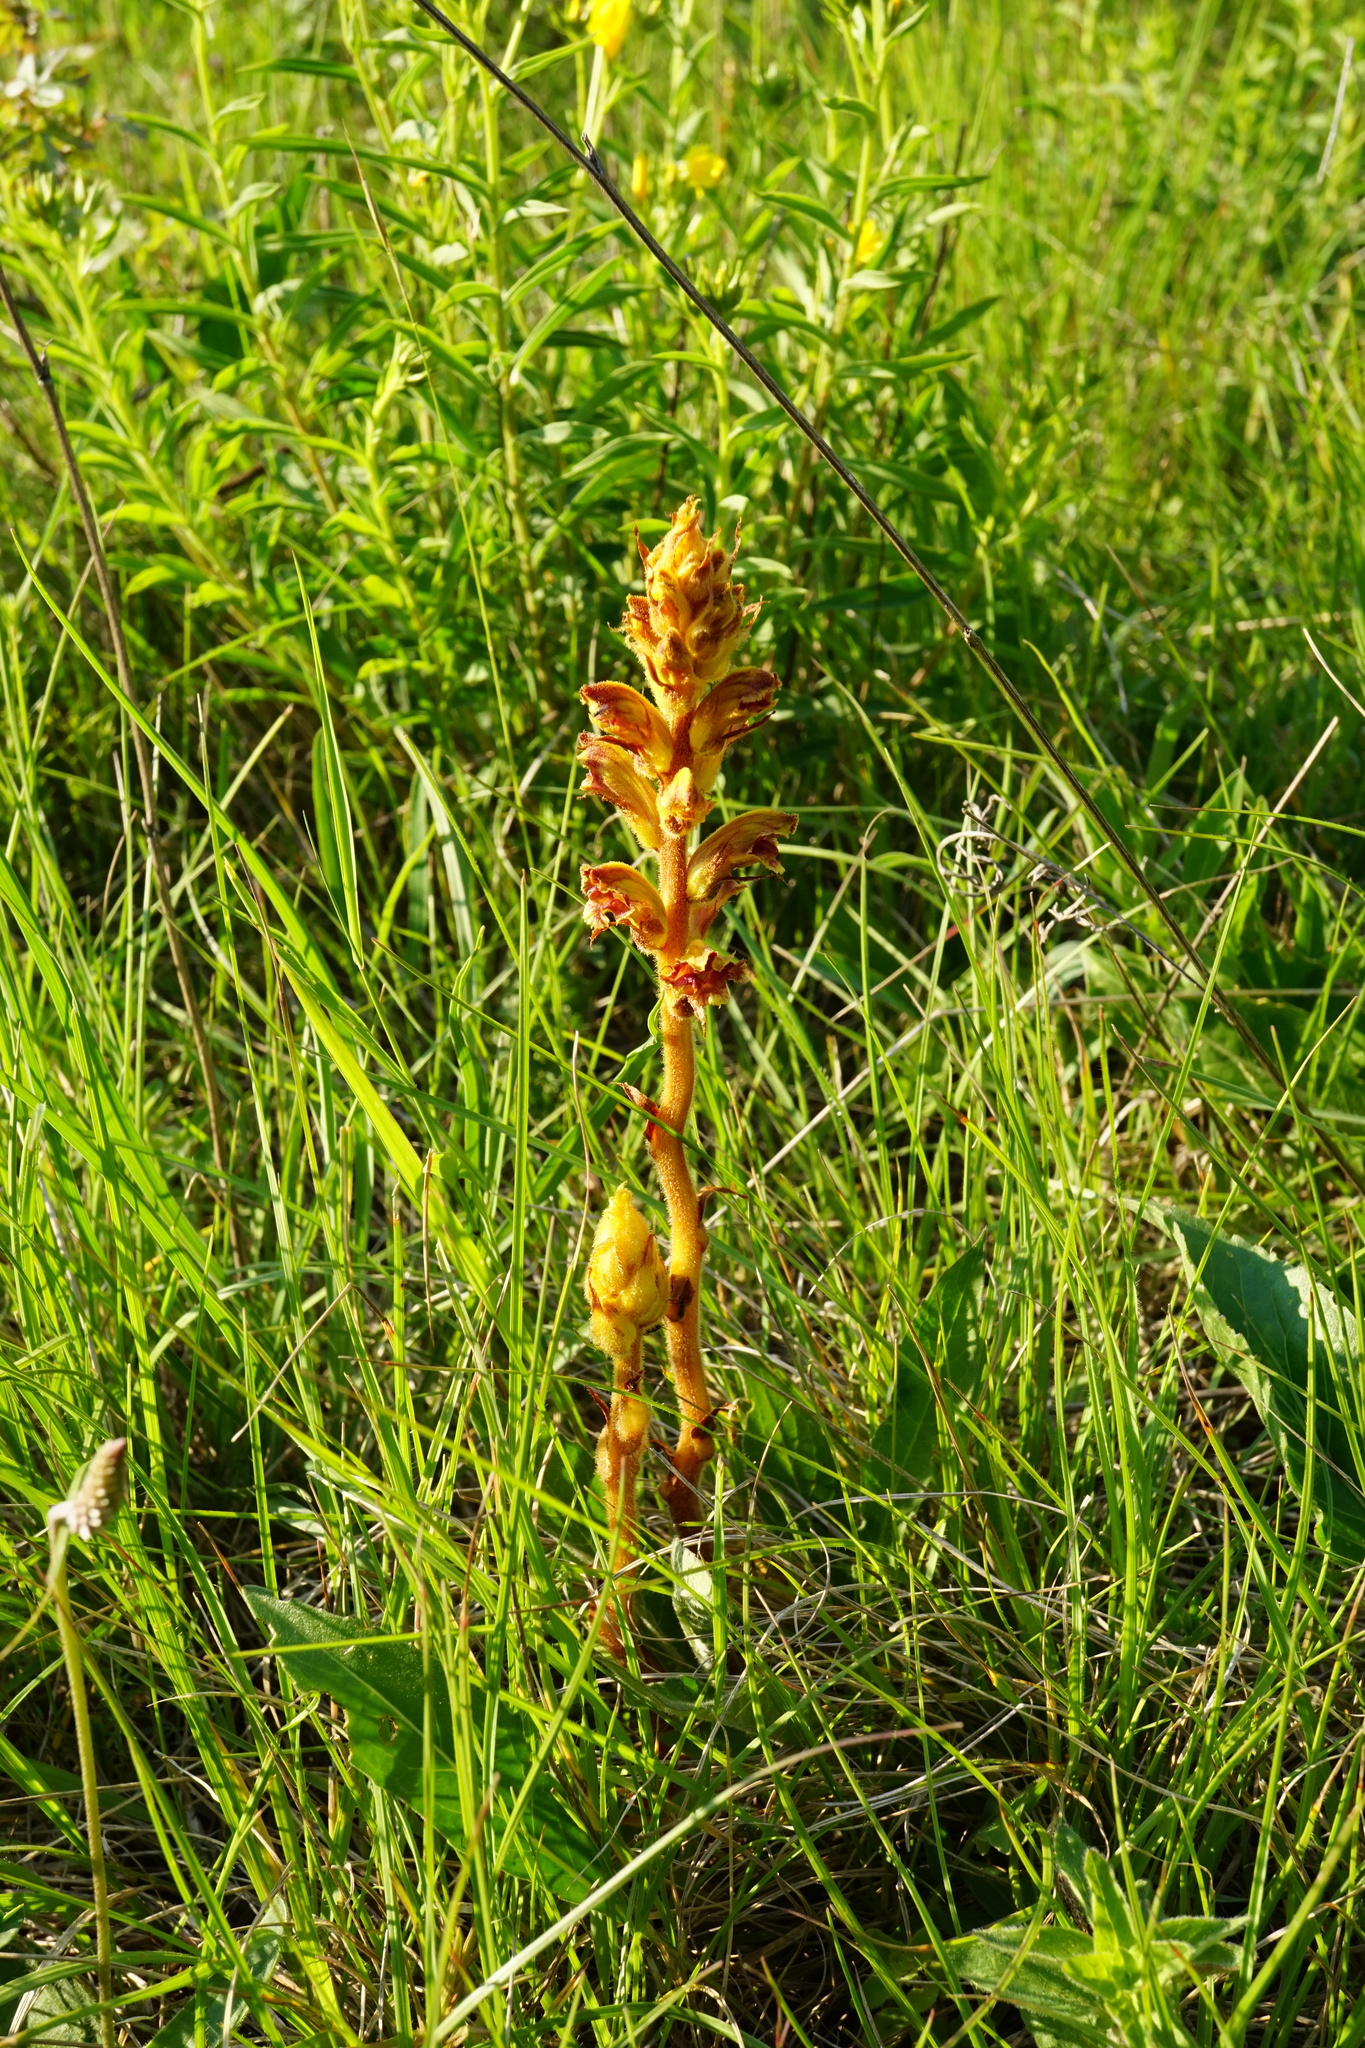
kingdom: Plantae
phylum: Tracheophyta
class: Magnoliopsida
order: Lamiales
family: Orobanchaceae
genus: Orobanche
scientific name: Orobanche gracilis
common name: Slender broomrape
